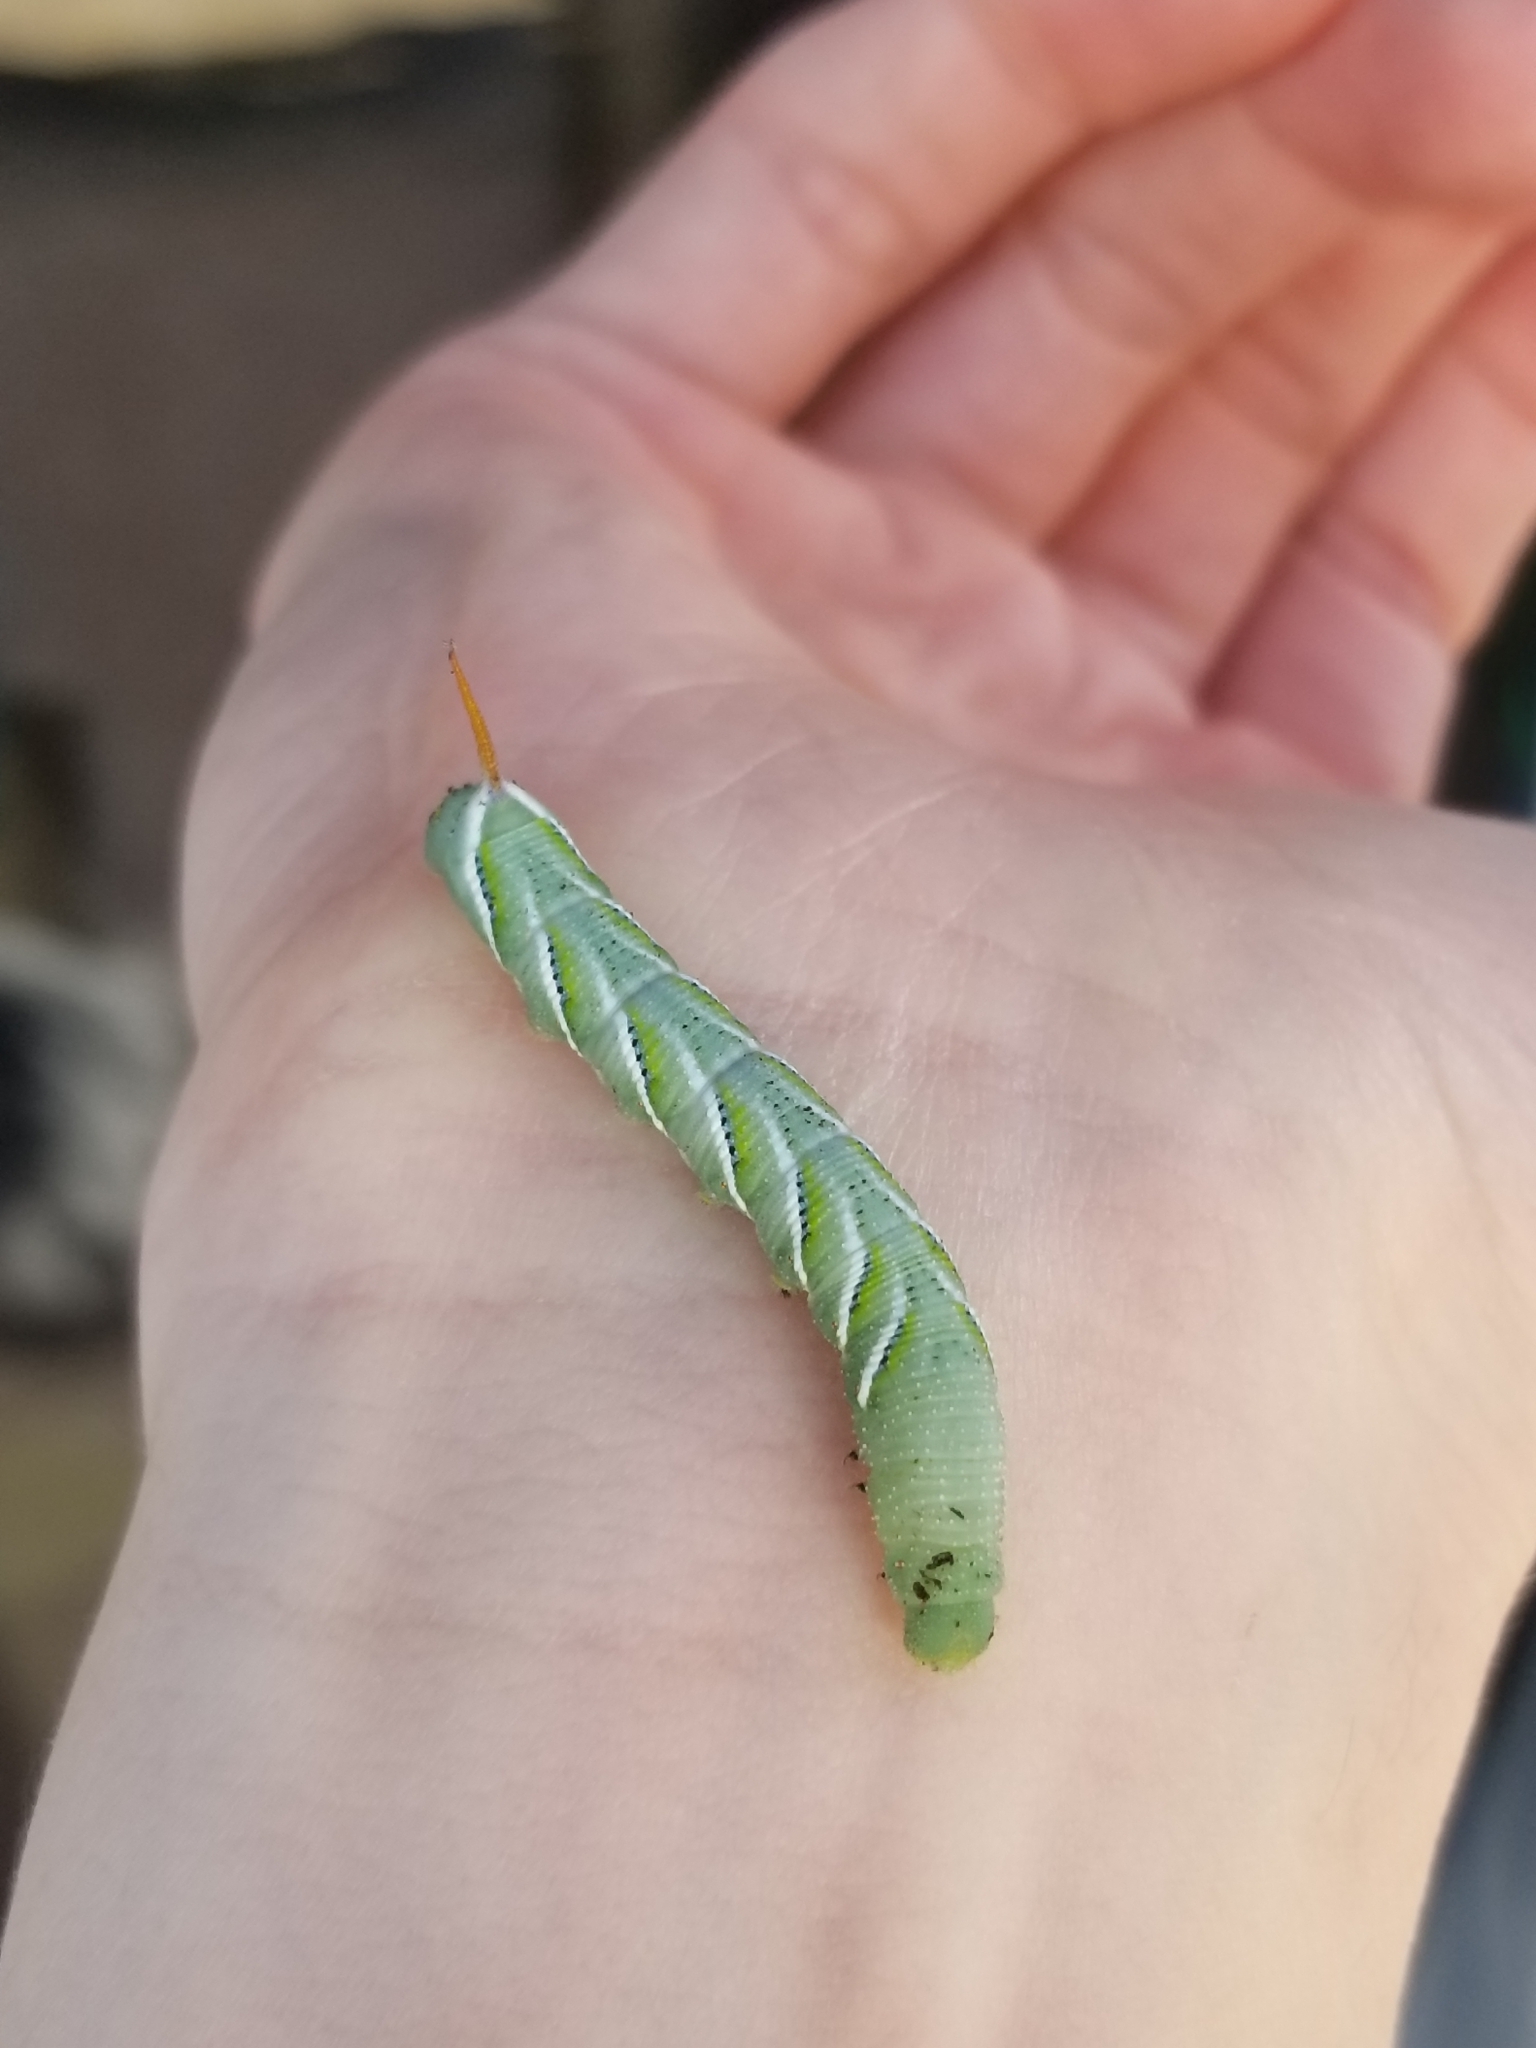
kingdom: Animalia
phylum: Arthropoda
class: Insecta
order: Lepidoptera
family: Sphingidae
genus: Manduca
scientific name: Manduca sexta
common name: Carolina sphinx
